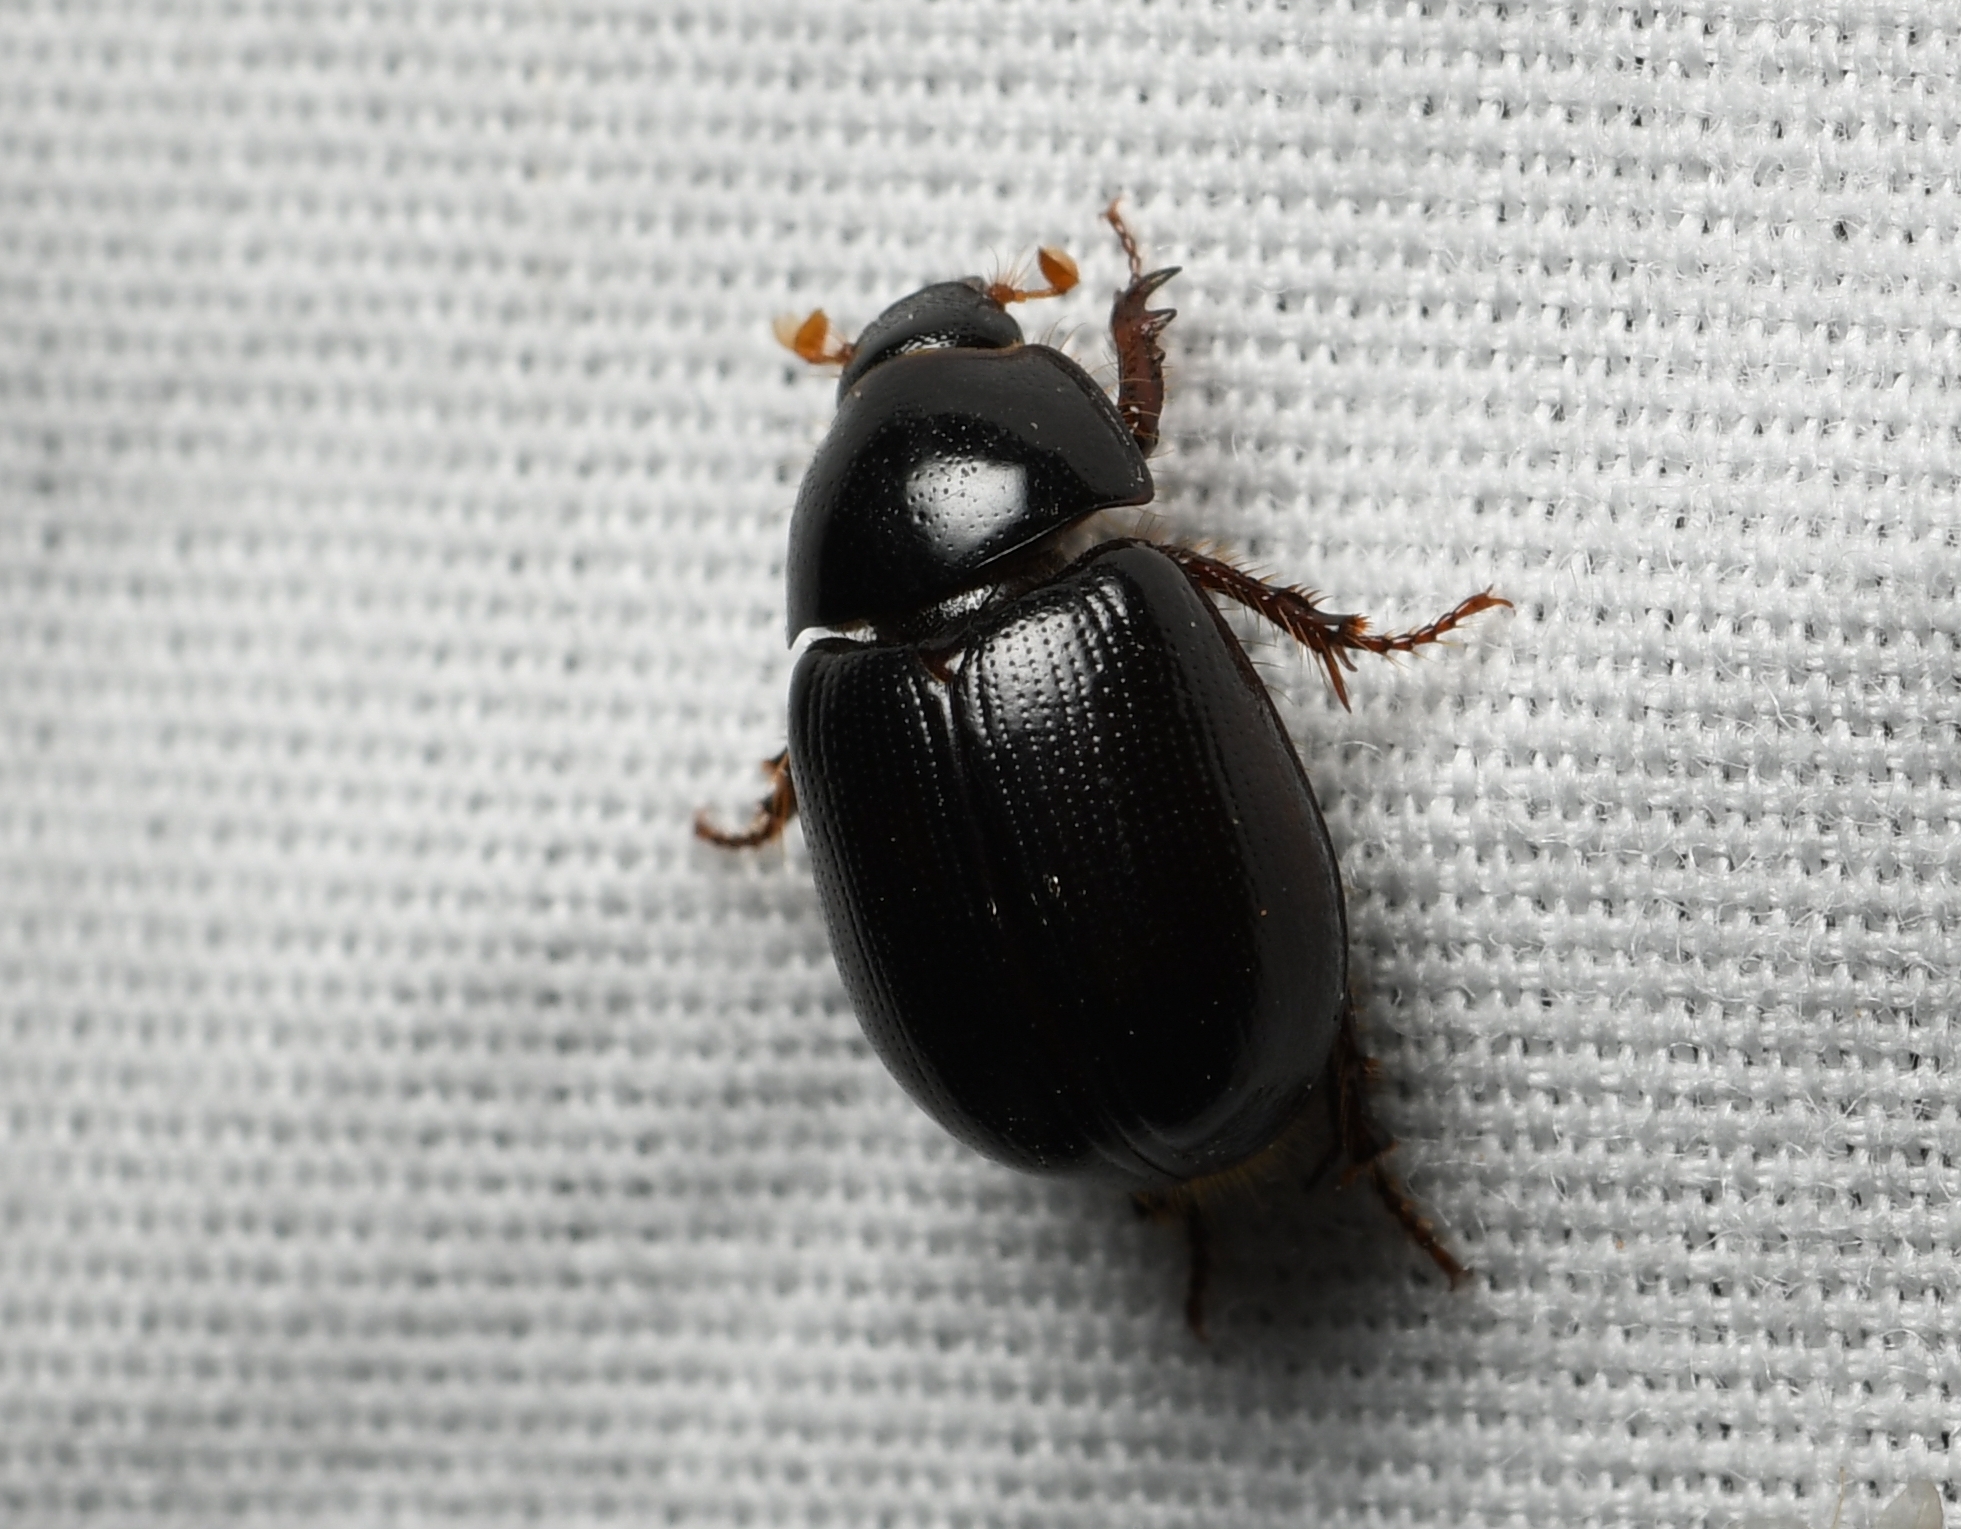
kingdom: Animalia
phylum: Arthropoda
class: Insecta
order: Coleoptera
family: Hybosoridae
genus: Hybosorus
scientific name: Hybosorus illigeri
